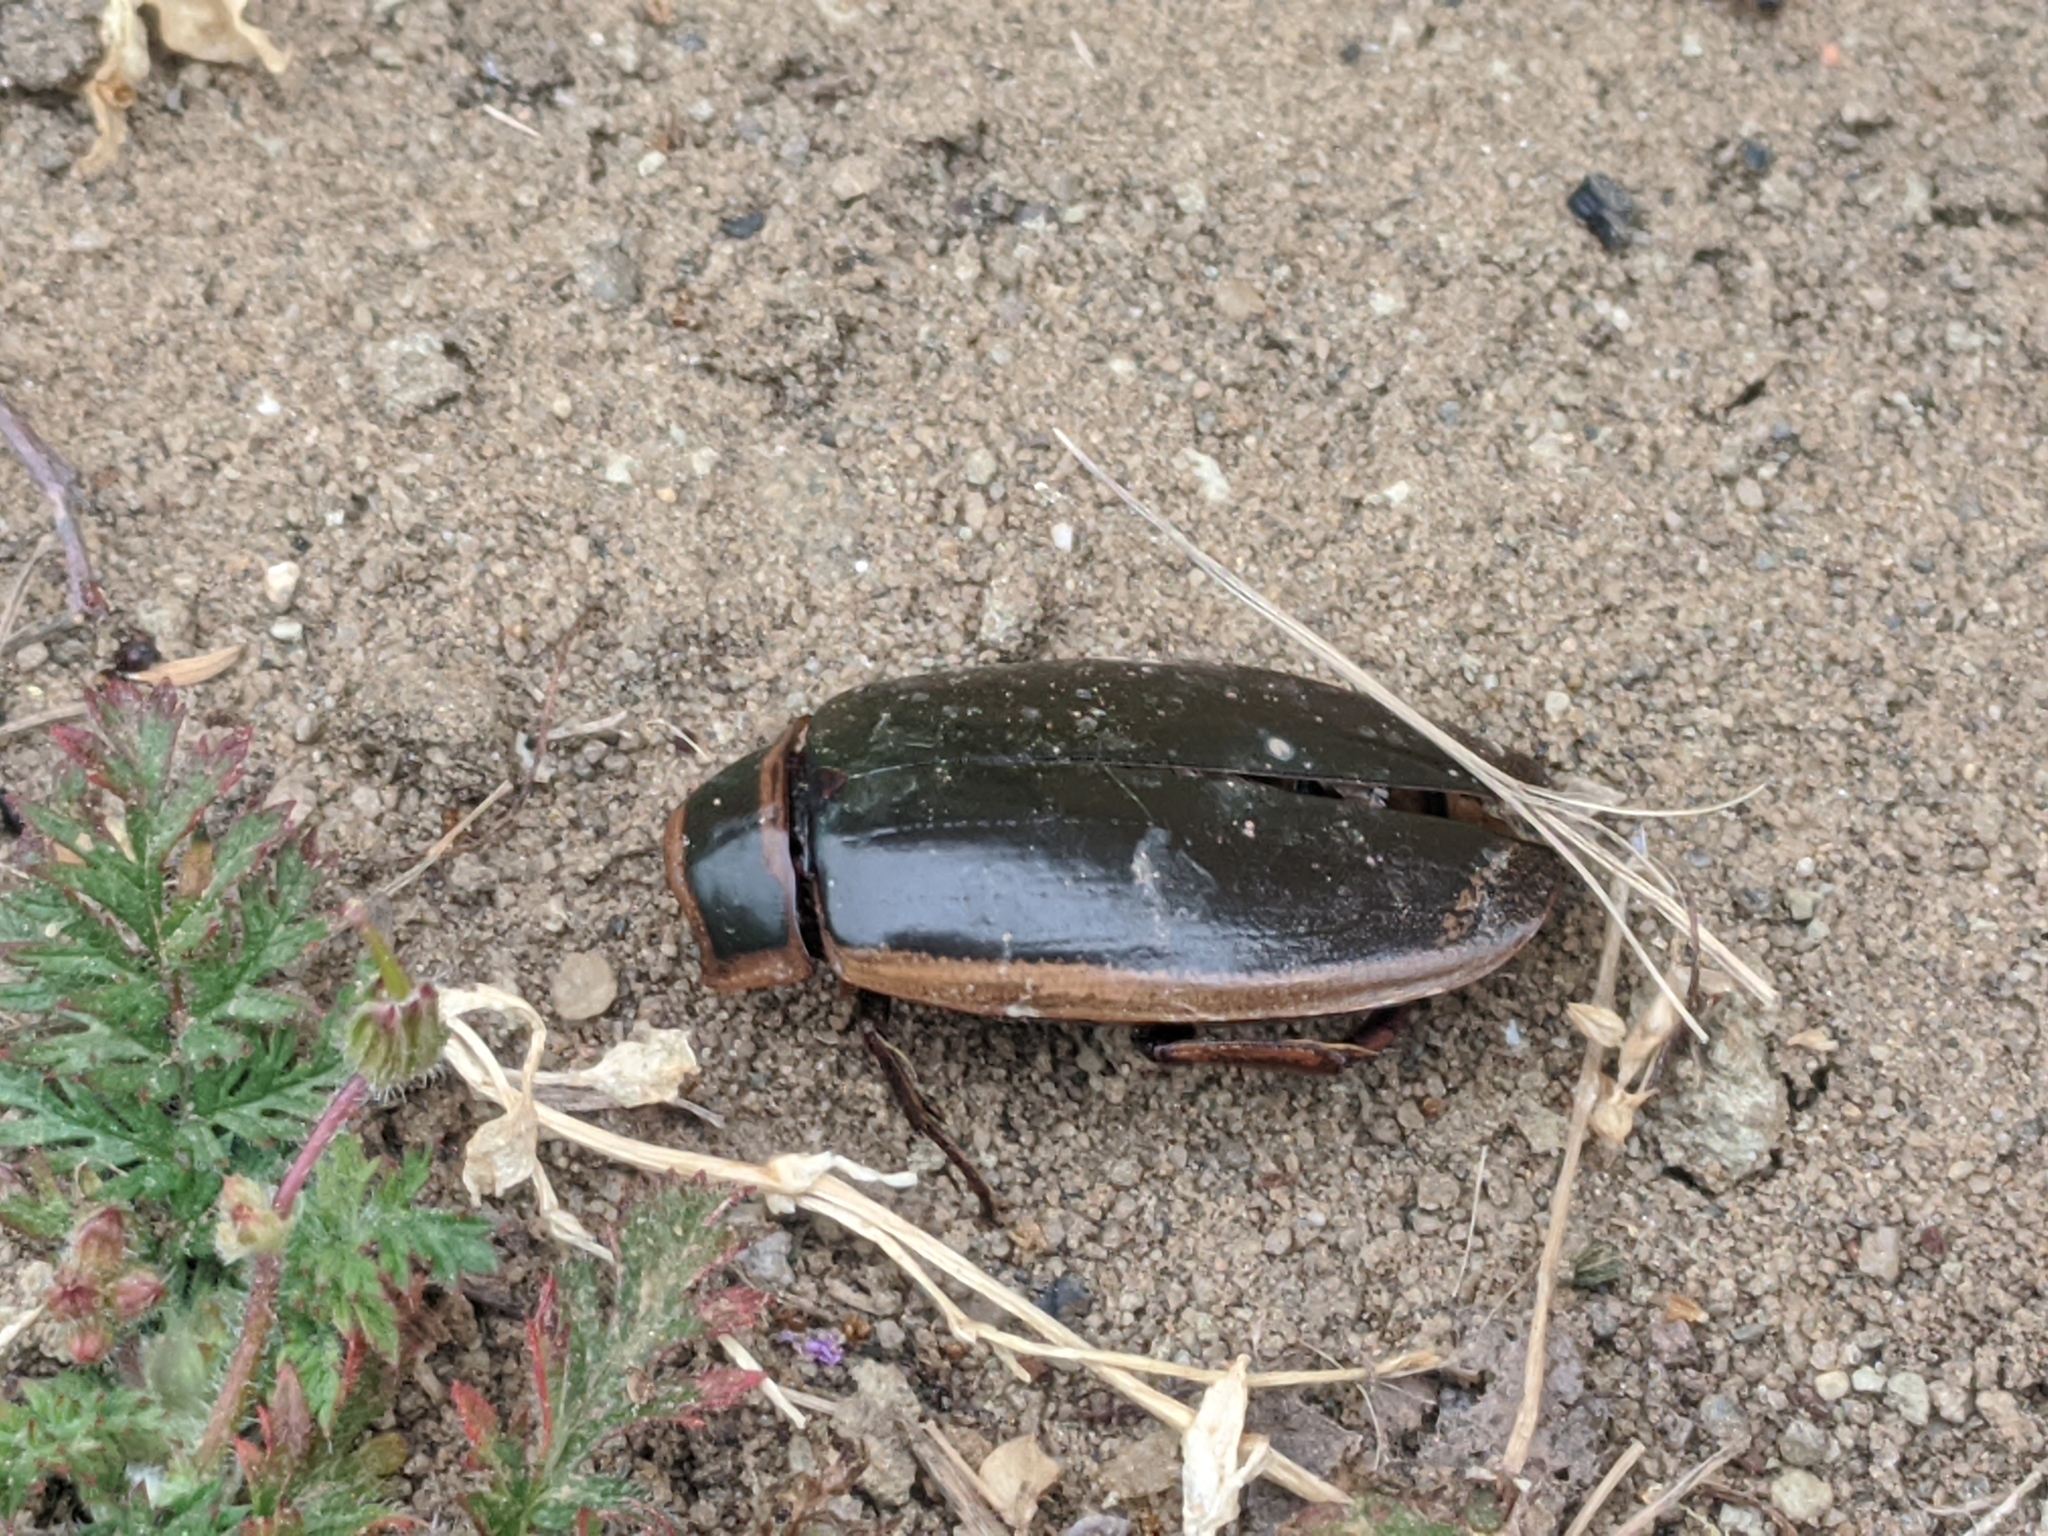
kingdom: Animalia
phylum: Arthropoda
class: Insecta
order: Coleoptera
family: Dytiscidae
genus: Dytiscus
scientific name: Dytiscus circumflexus
